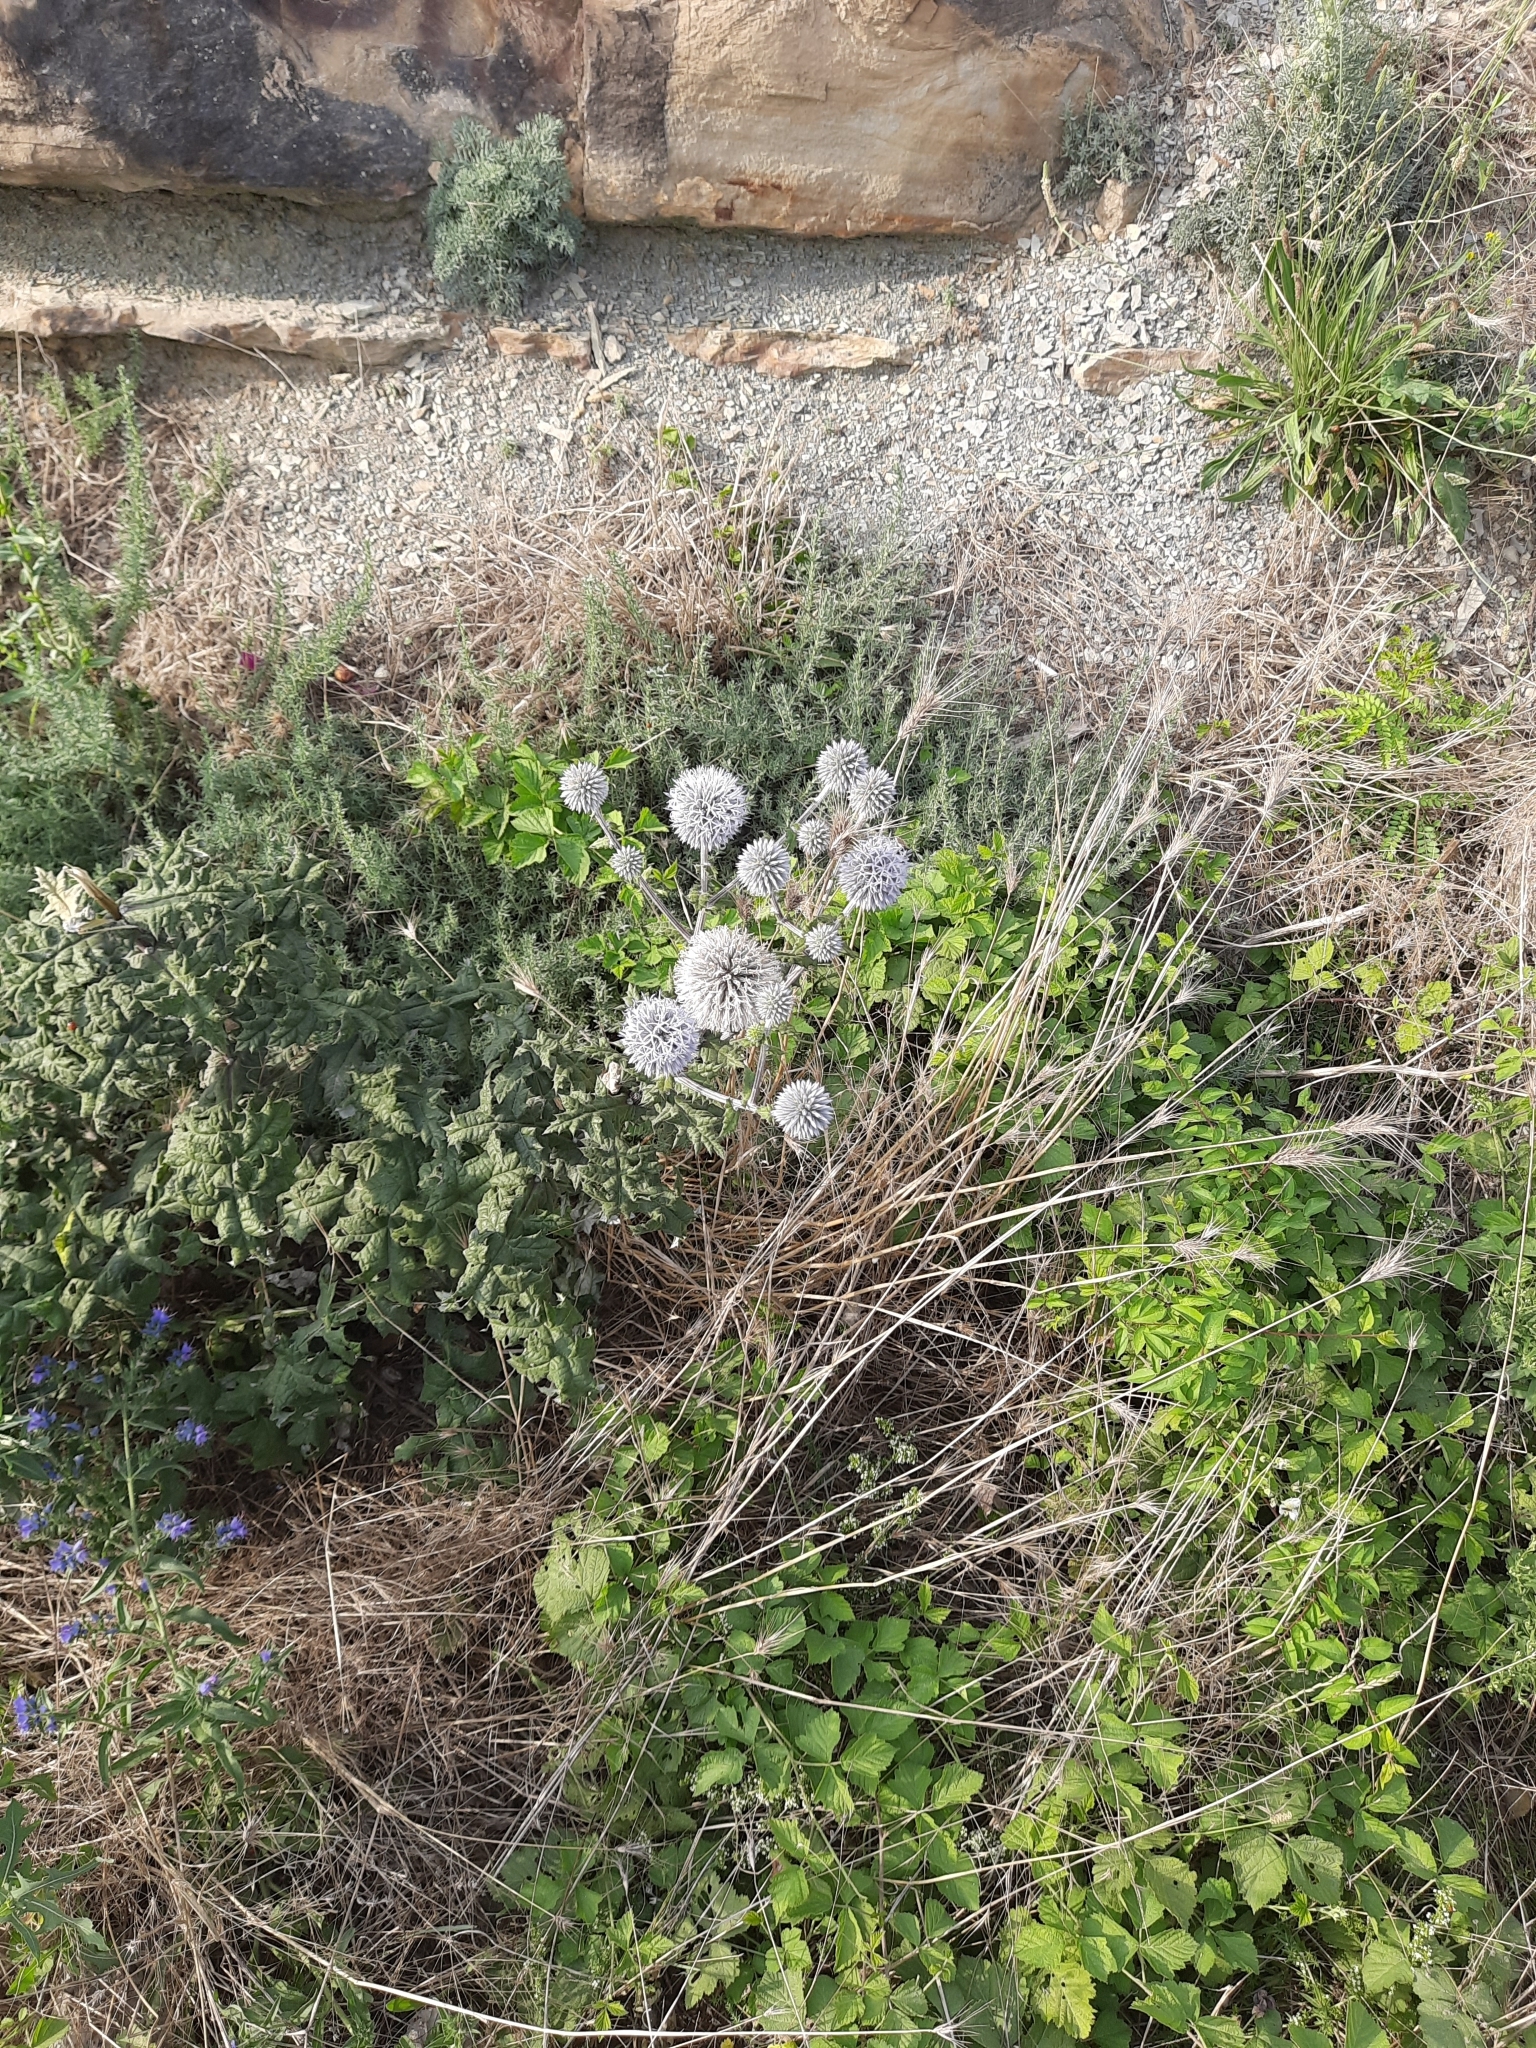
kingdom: Plantae
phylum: Tracheophyta
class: Magnoliopsida
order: Asterales
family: Asteraceae
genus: Echinops
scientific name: Echinops sphaerocephalus
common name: Glandular globe-thistle
